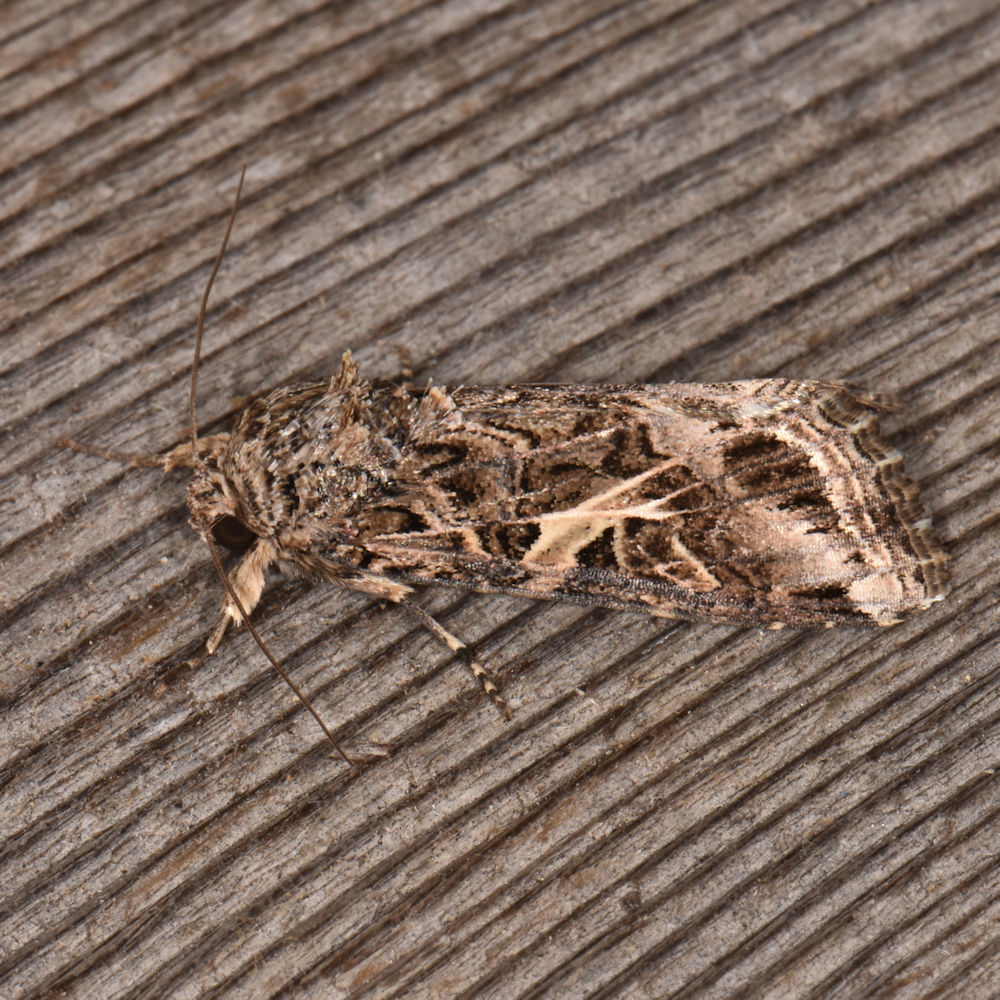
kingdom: Animalia
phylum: Arthropoda
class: Insecta
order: Lepidoptera
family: Noctuidae
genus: Spodoptera
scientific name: Spodoptera ornithogalli
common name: Yellow-striped armyworm
